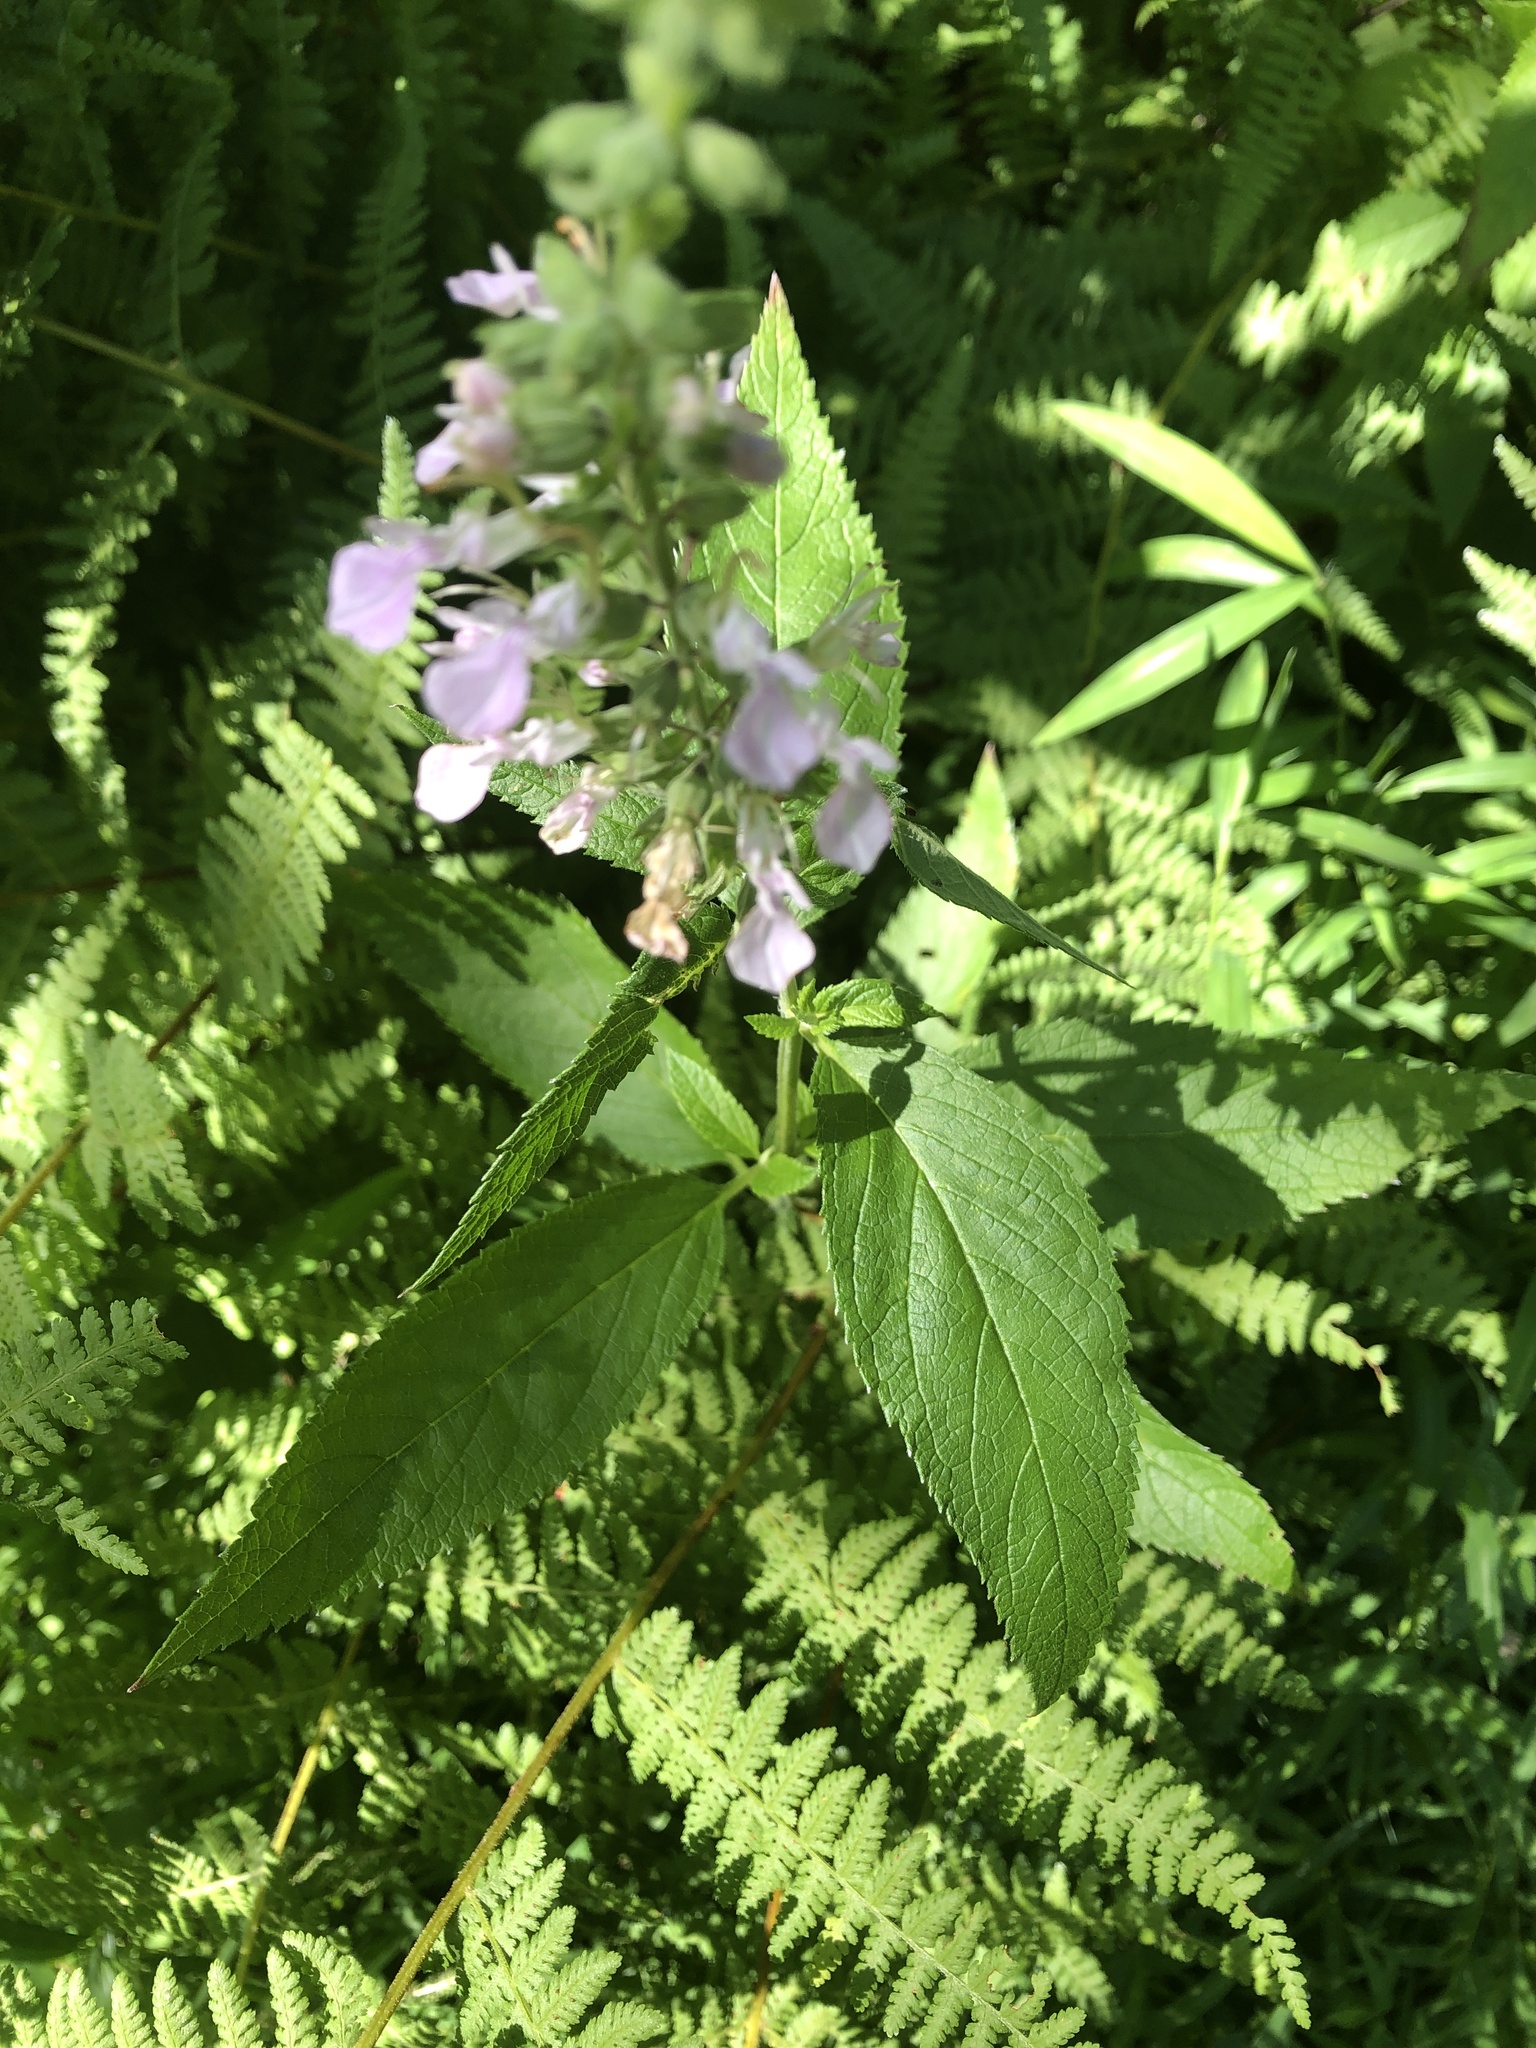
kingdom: Plantae
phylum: Tracheophyta
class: Magnoliopsida
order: Lamiales
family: Lamiaceae
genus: Teucrium
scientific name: Teucrium canadense
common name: American germander
